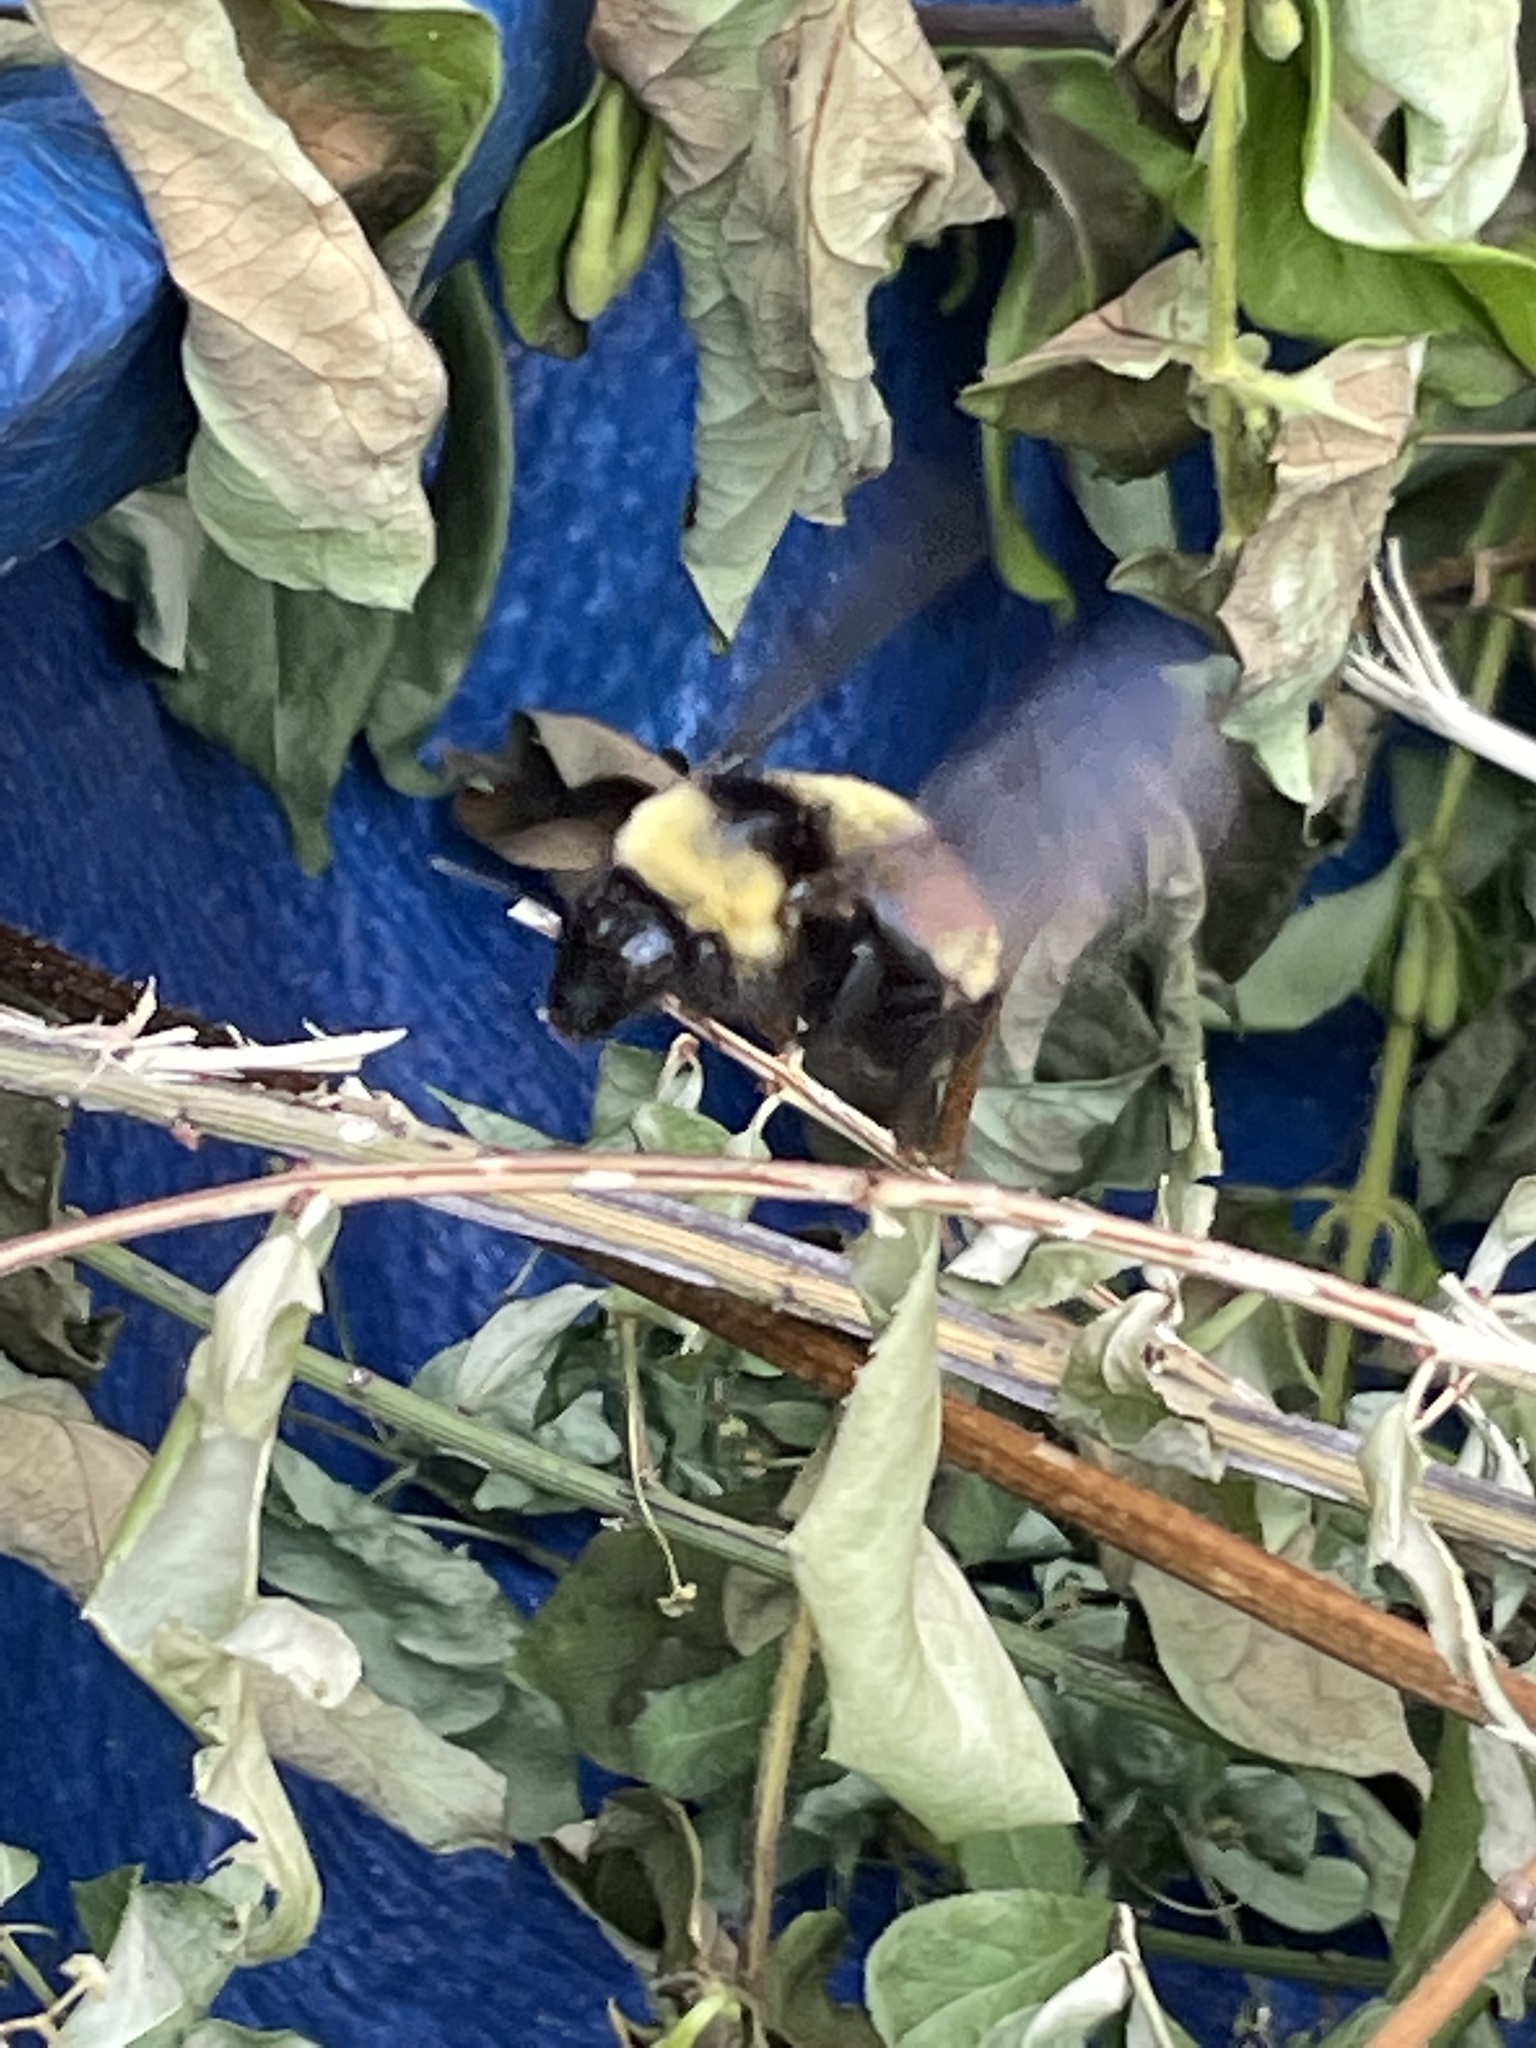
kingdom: Animalia
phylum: Arthropoda
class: Insecta
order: Hymenoptera
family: Apidae
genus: Bombus
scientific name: Bombus pensylvanicus
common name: Bumble bee
